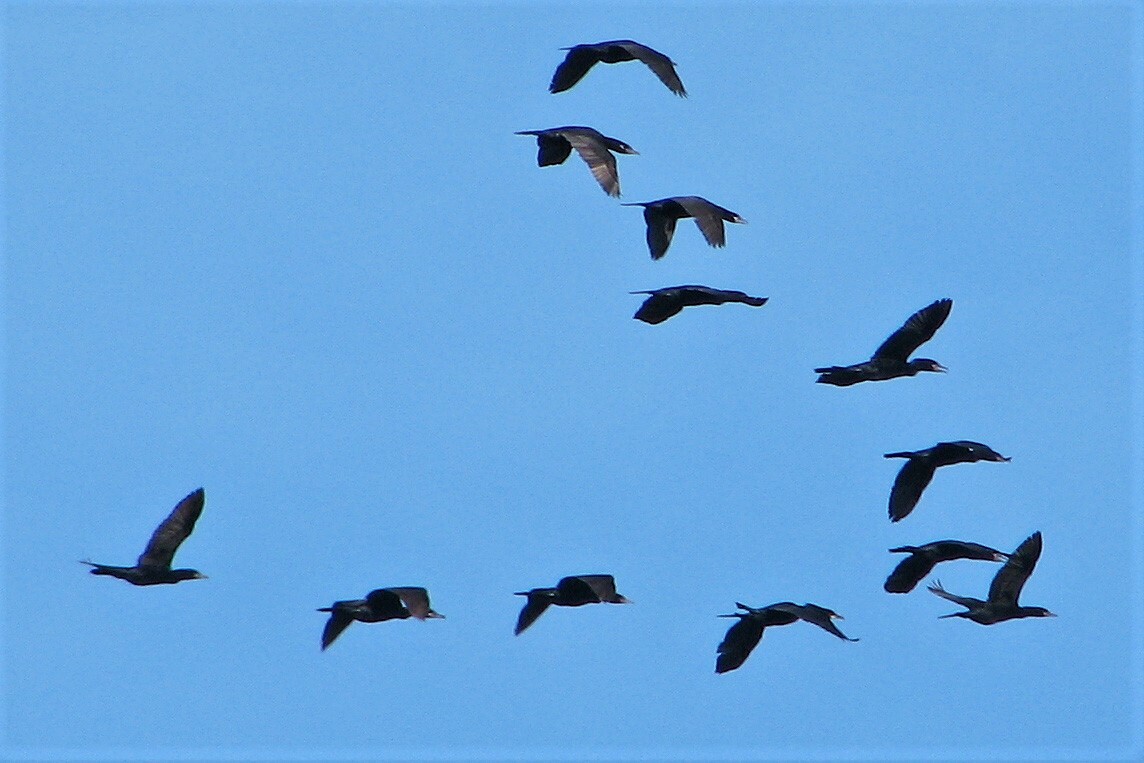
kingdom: Animalia
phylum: Chordata
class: Aves
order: Suliformes
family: Phalacrocoracidae
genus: Phalacrocorax
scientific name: Phalacrocorax brasilianus
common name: Neotropic cormorant
